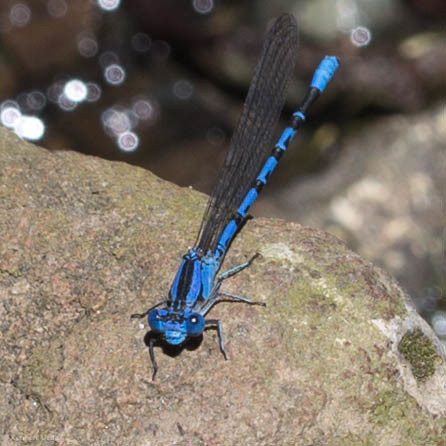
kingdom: Animalia
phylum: Arthropoda
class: Insecta
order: Odonata
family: Coenagrionidae
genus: Argia
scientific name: Argia vivida
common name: Vivid dancer
